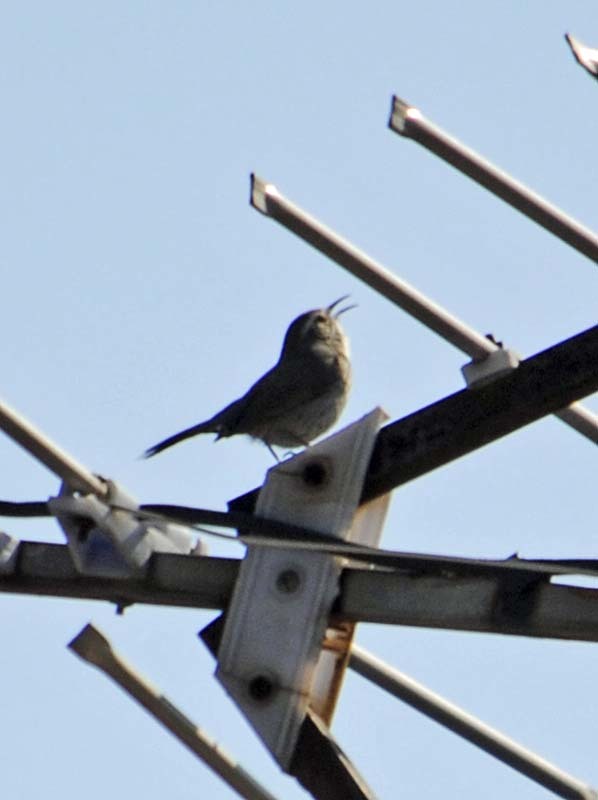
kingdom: Animalia
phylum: Chordata
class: Aves
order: Passeriformes
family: Troglodytidae
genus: Thryomanes
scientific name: Thryomanes bewickii
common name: Bewick's wren
